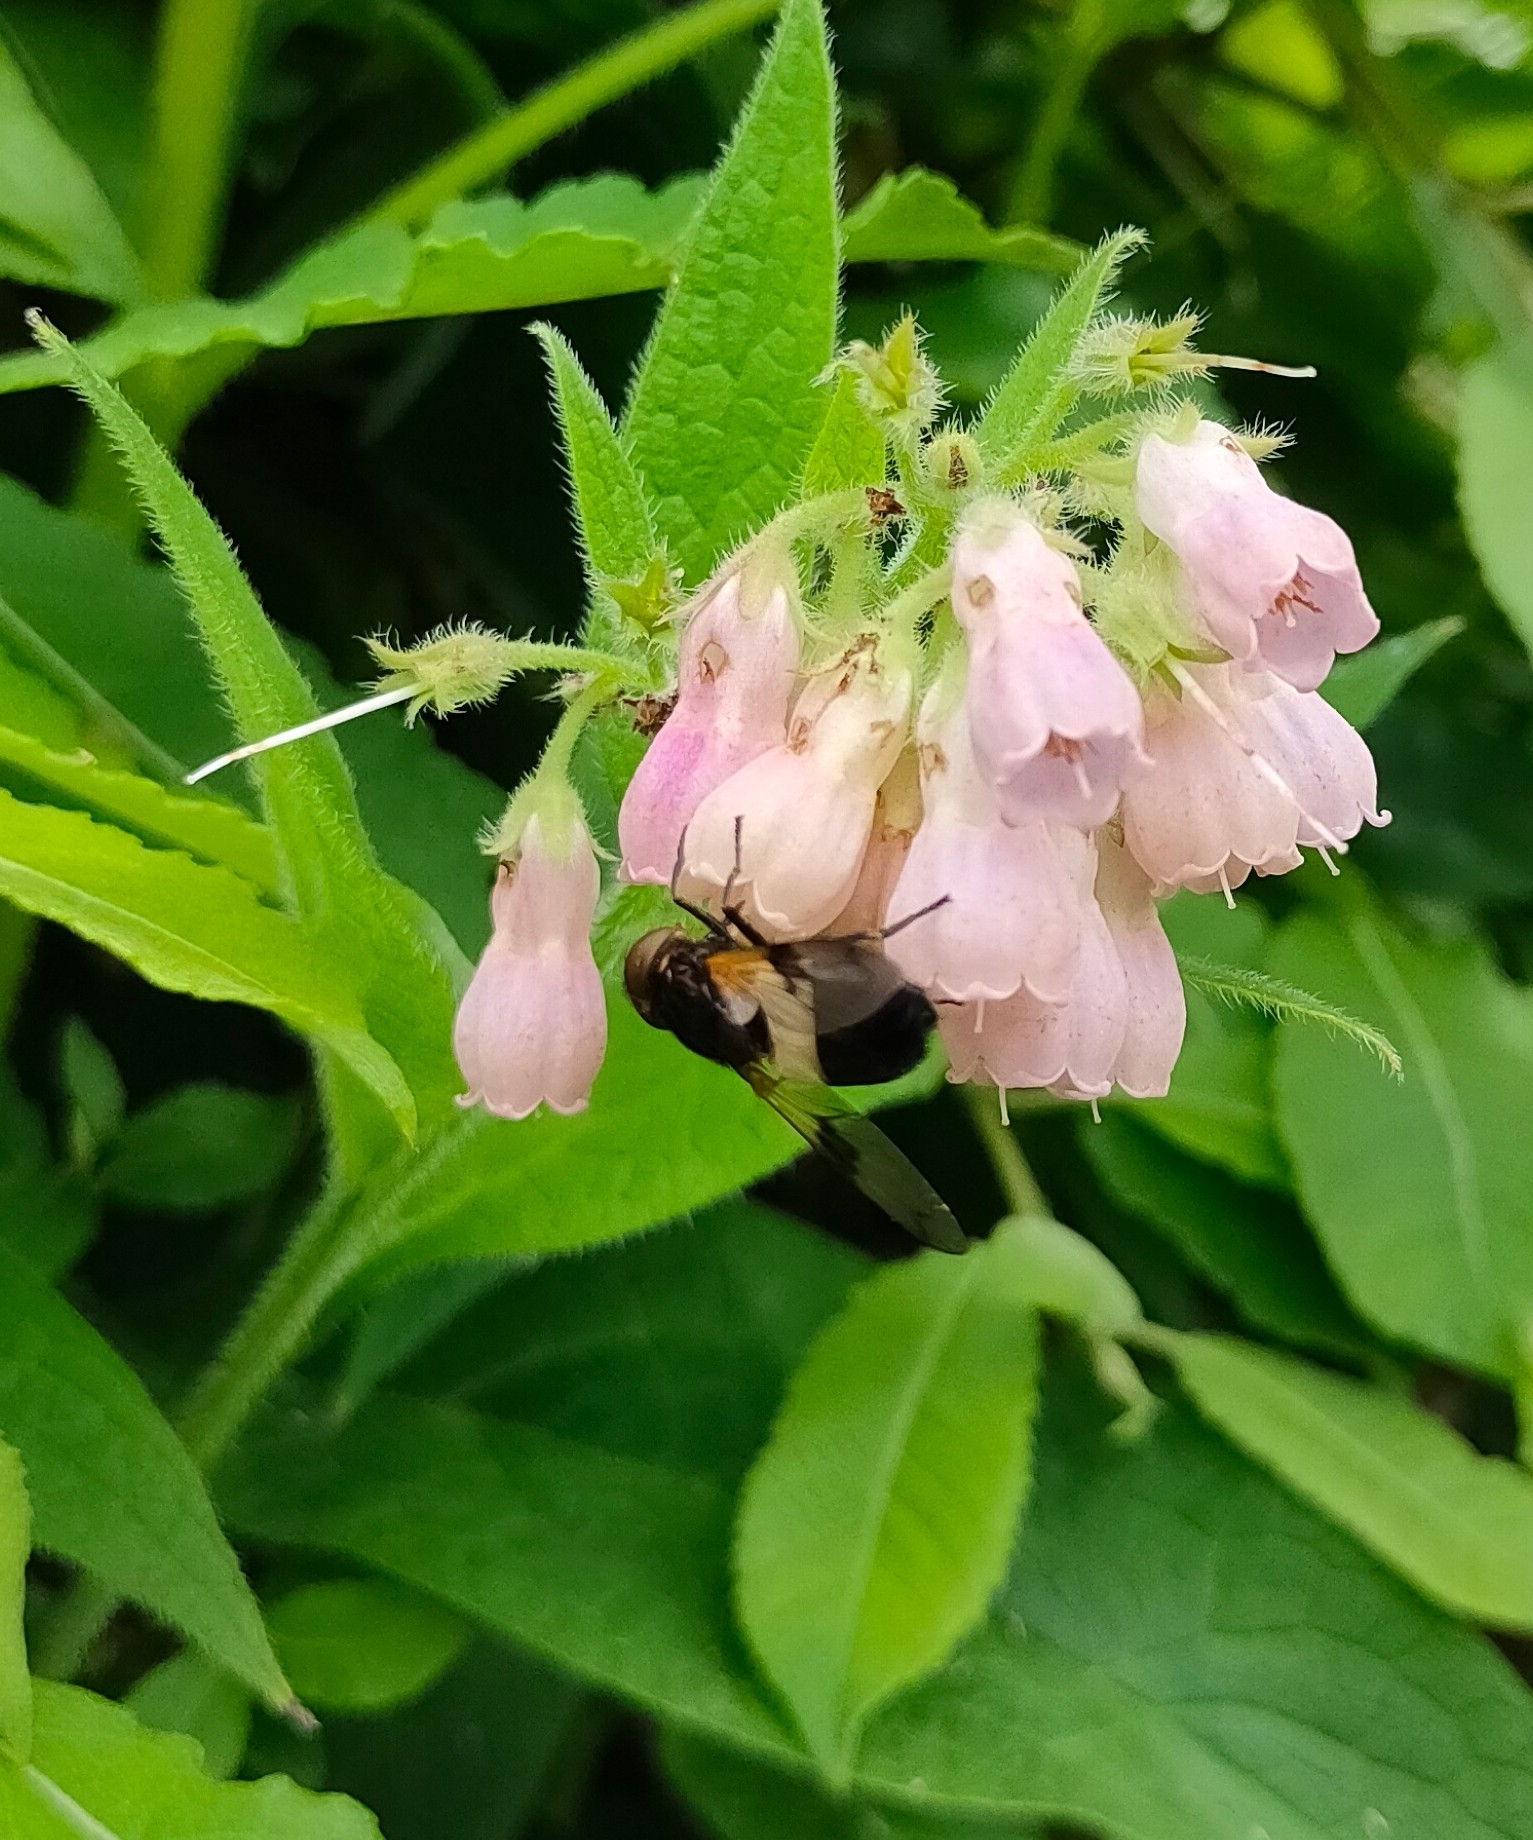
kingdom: Animalia
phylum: Arthropoda
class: Insecta
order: Diptera
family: Syrphidae
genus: Volucella
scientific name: Volucella pellucens
